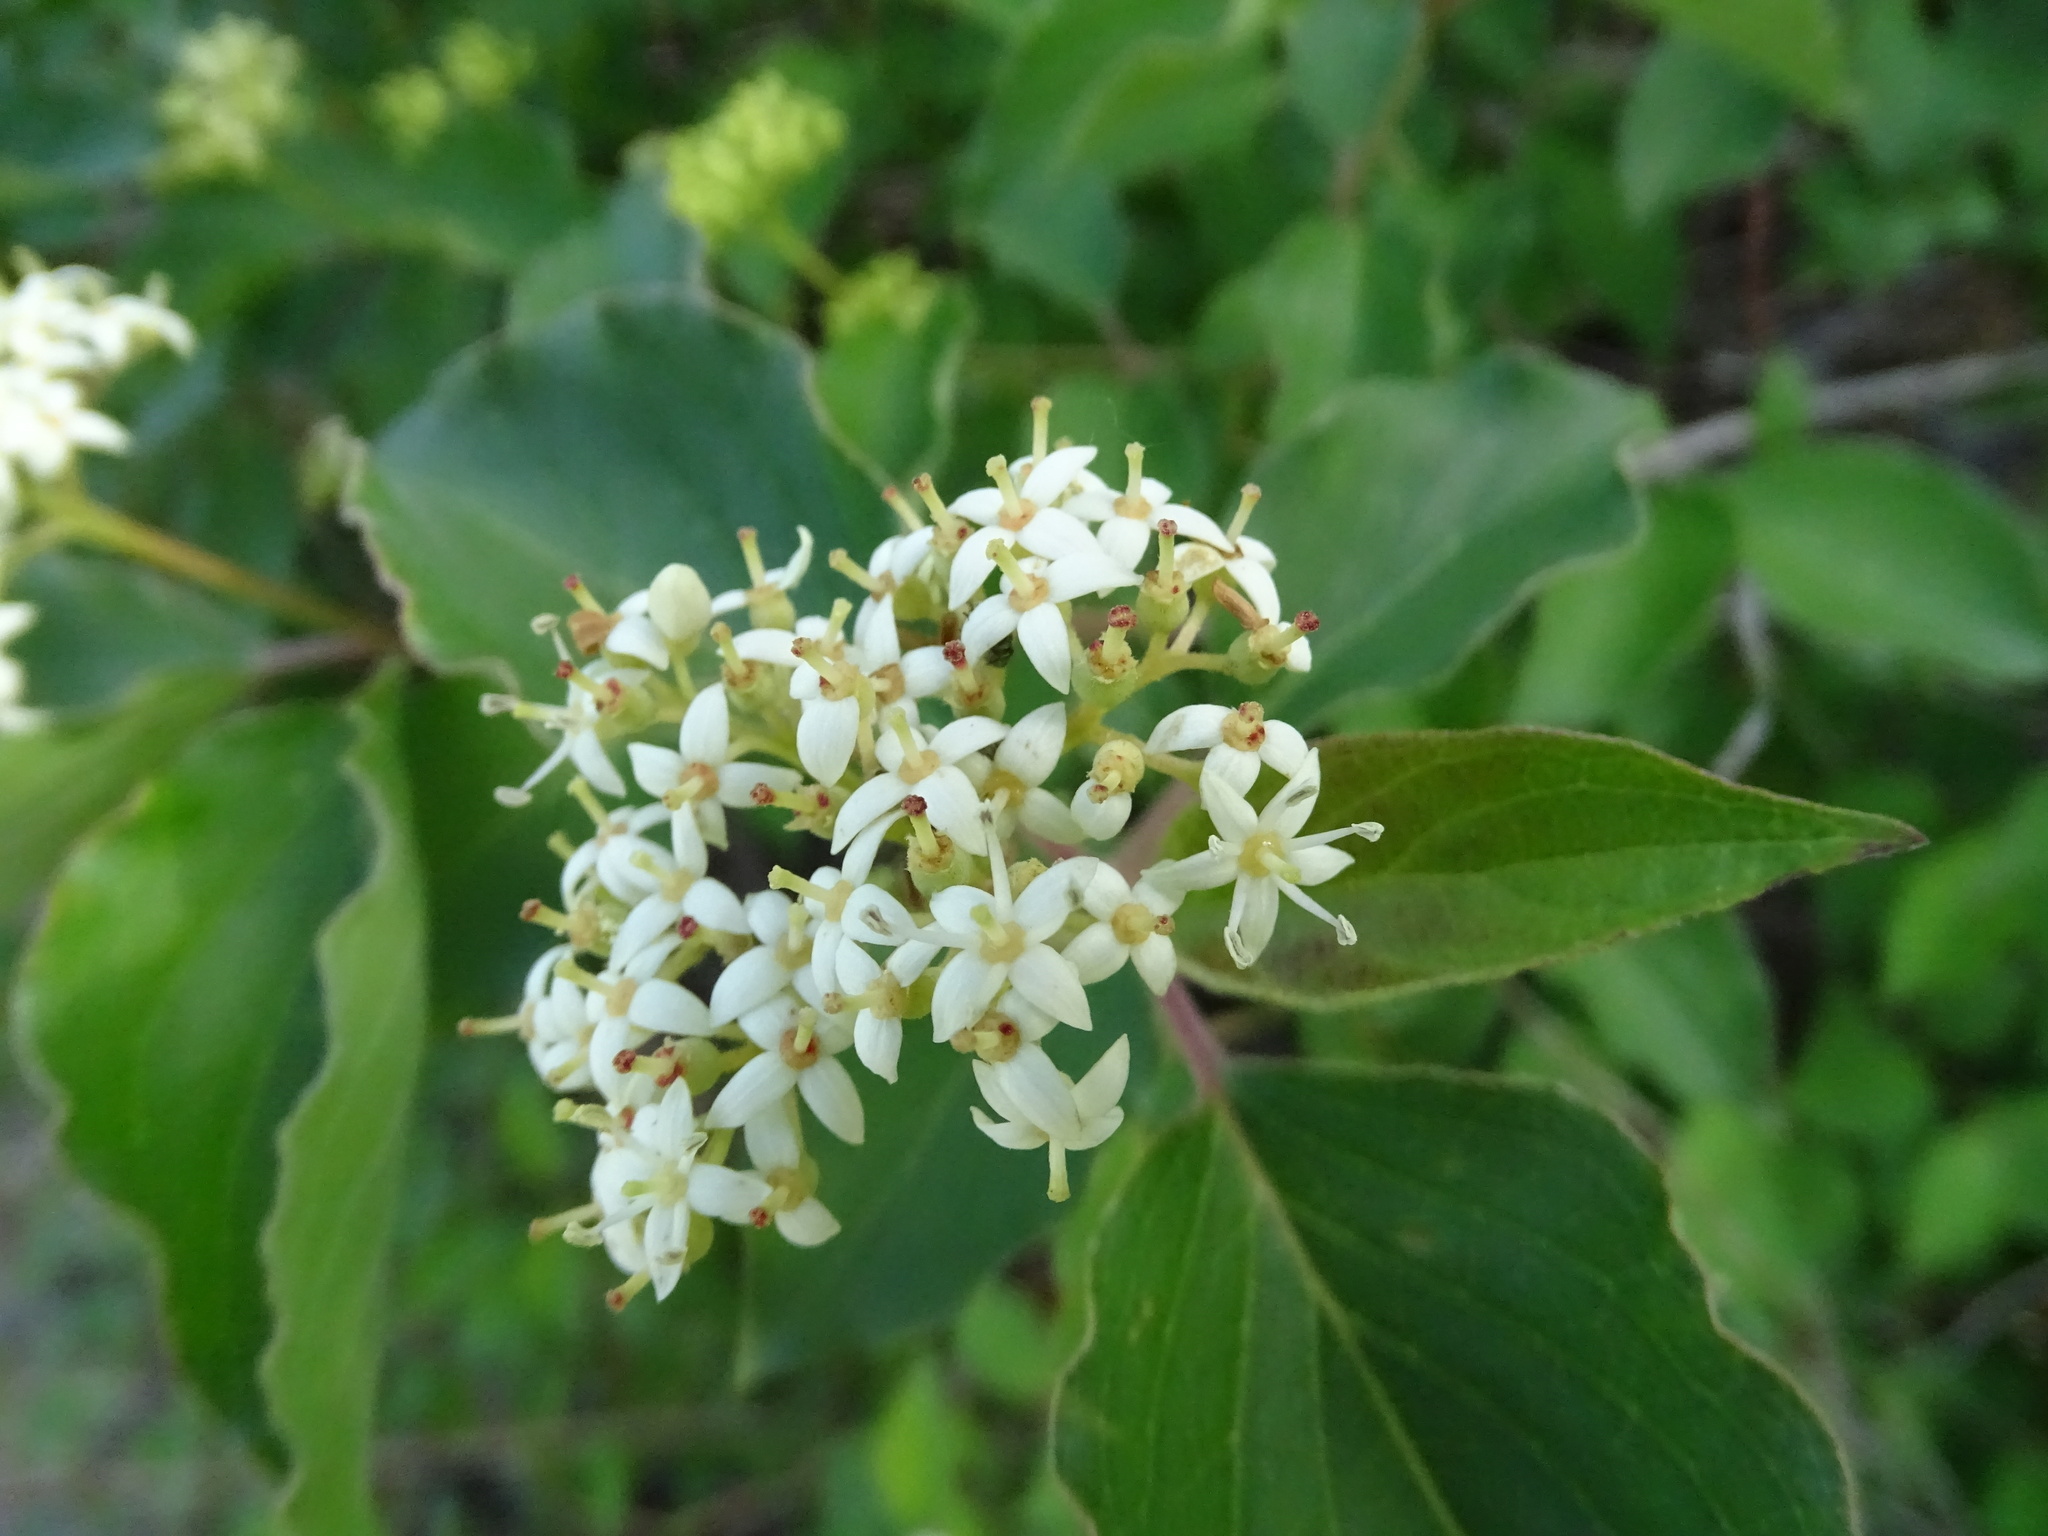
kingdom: Plantae
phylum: Tracheophyta
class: Magnoliopsida
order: Cornales
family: Cornaceae
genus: Cornus
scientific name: Cornus drummondii
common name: Rough-leaf dogwood
